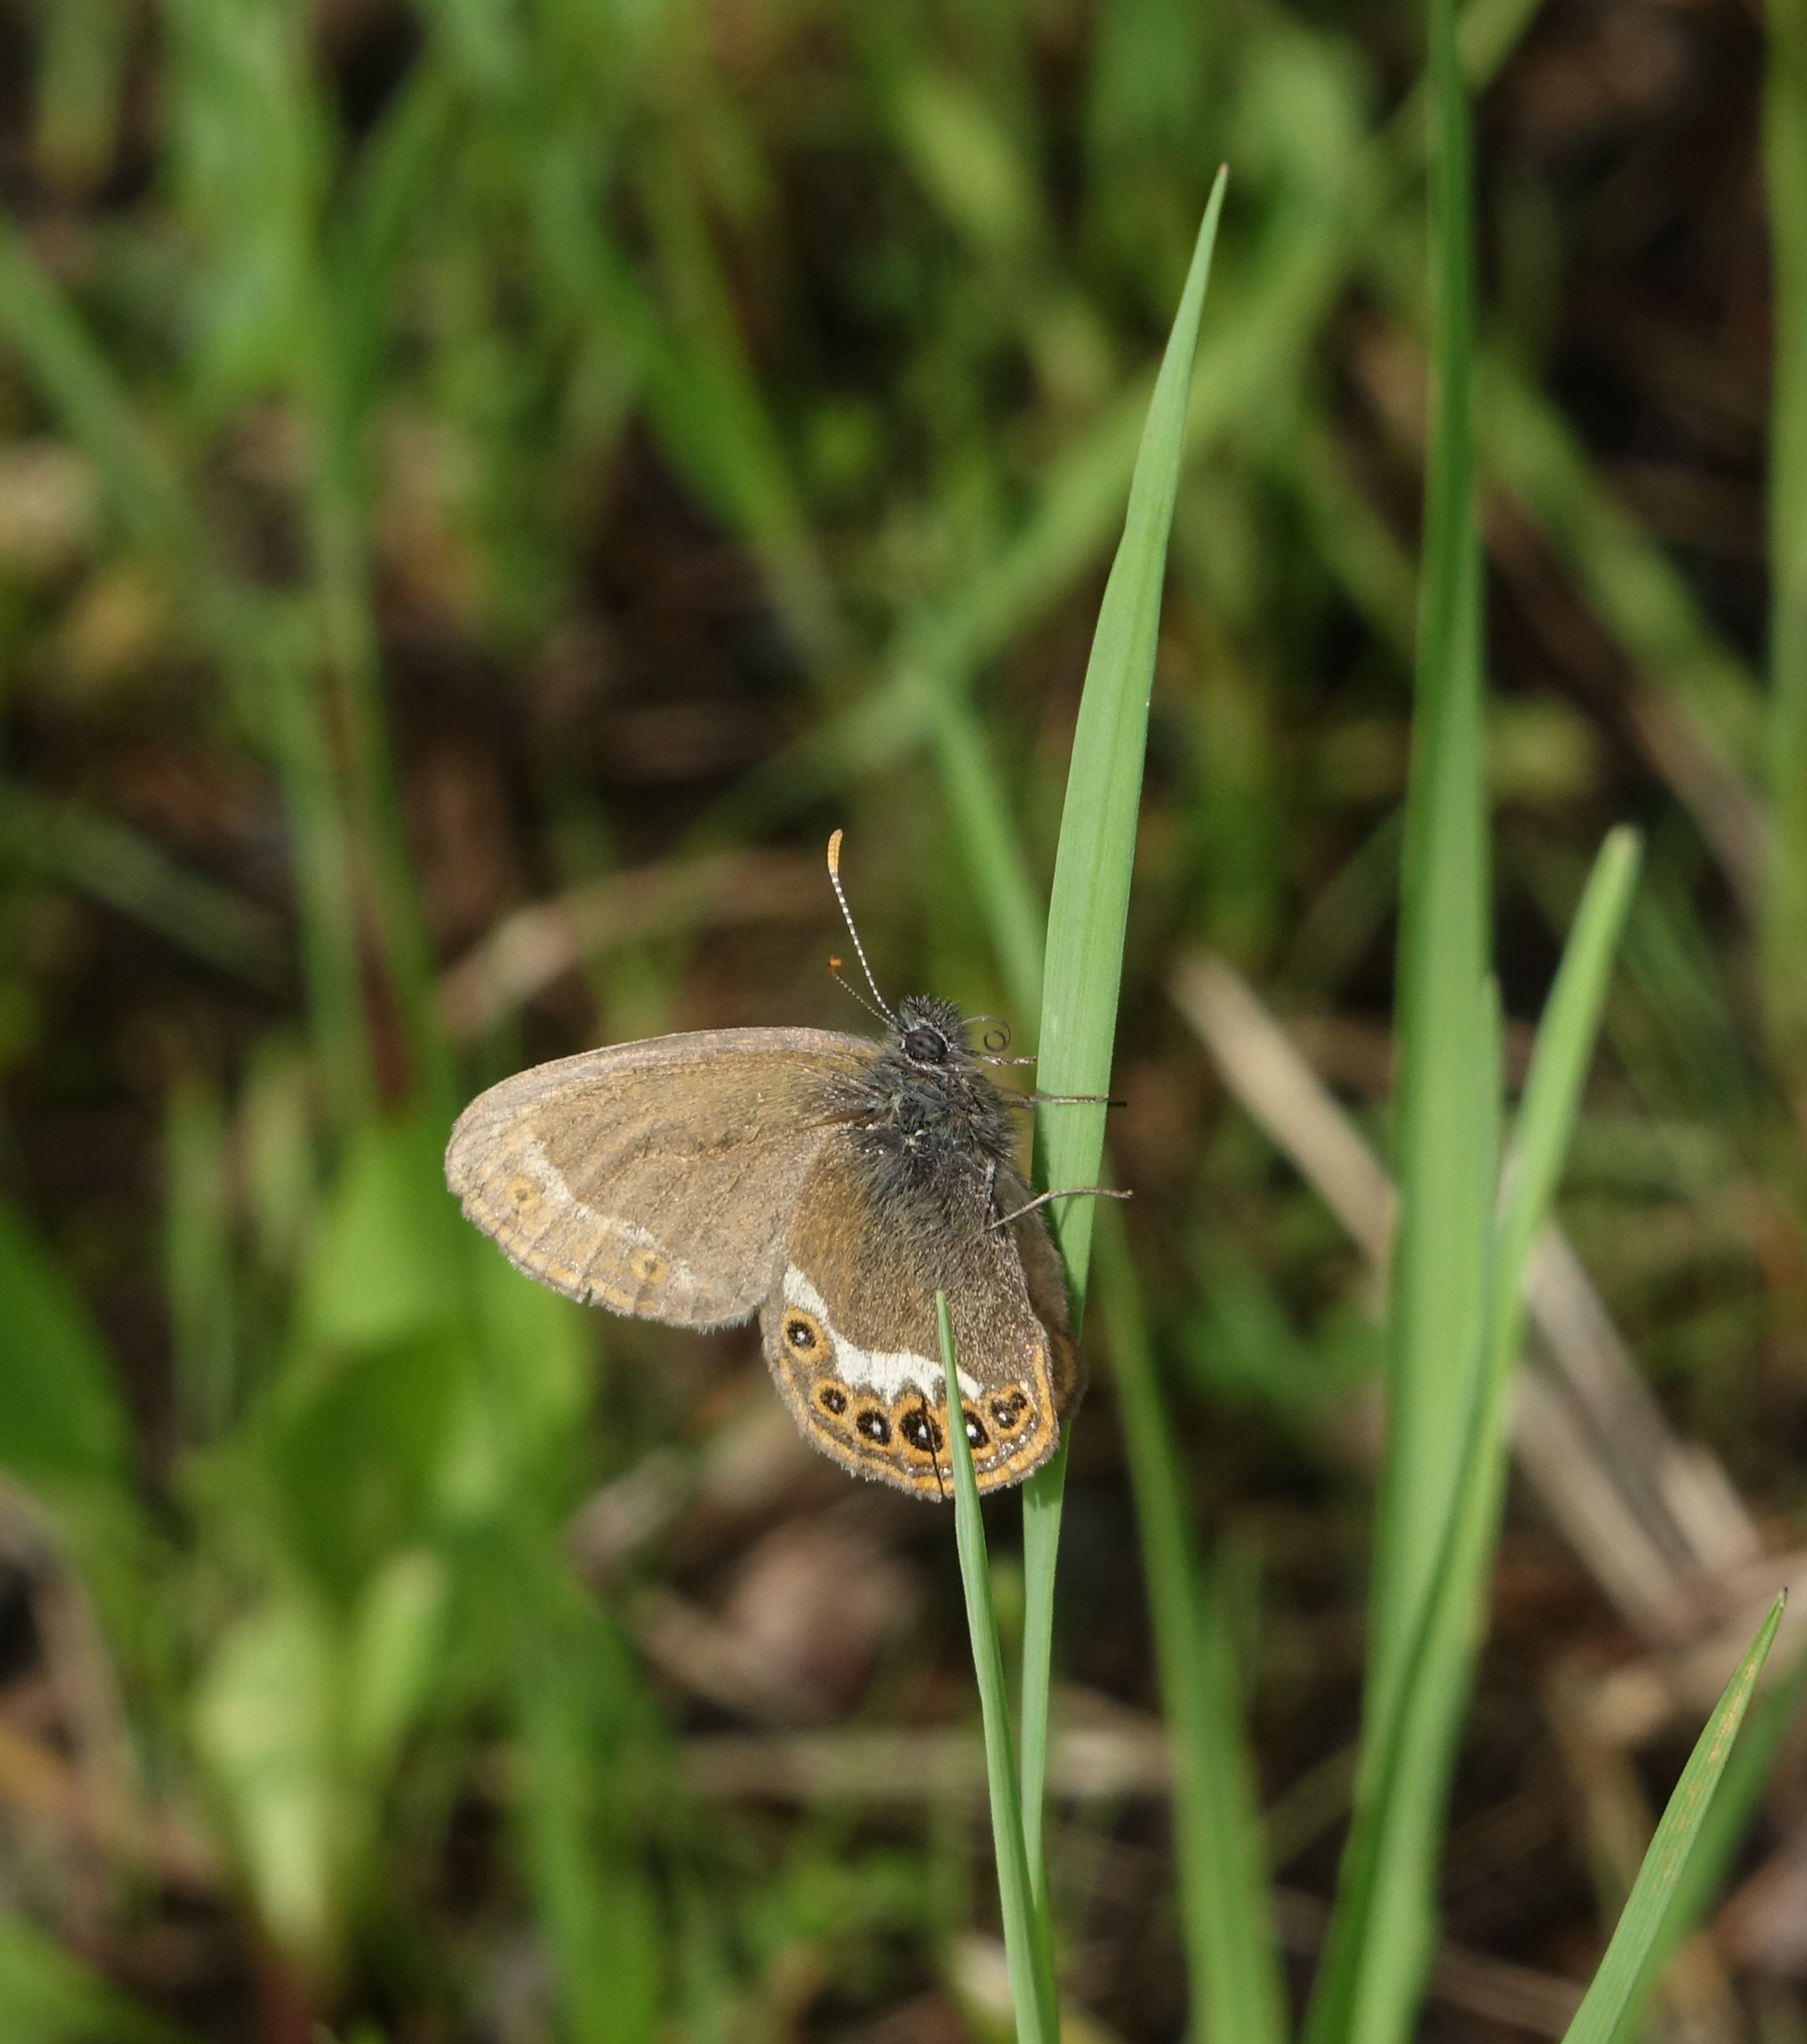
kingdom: Animalia
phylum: Arthropoda
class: Insecta
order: Lepidoptera
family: Nymphalidae
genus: Coenonympha
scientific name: Coenonympha hero
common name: Scarce heath
